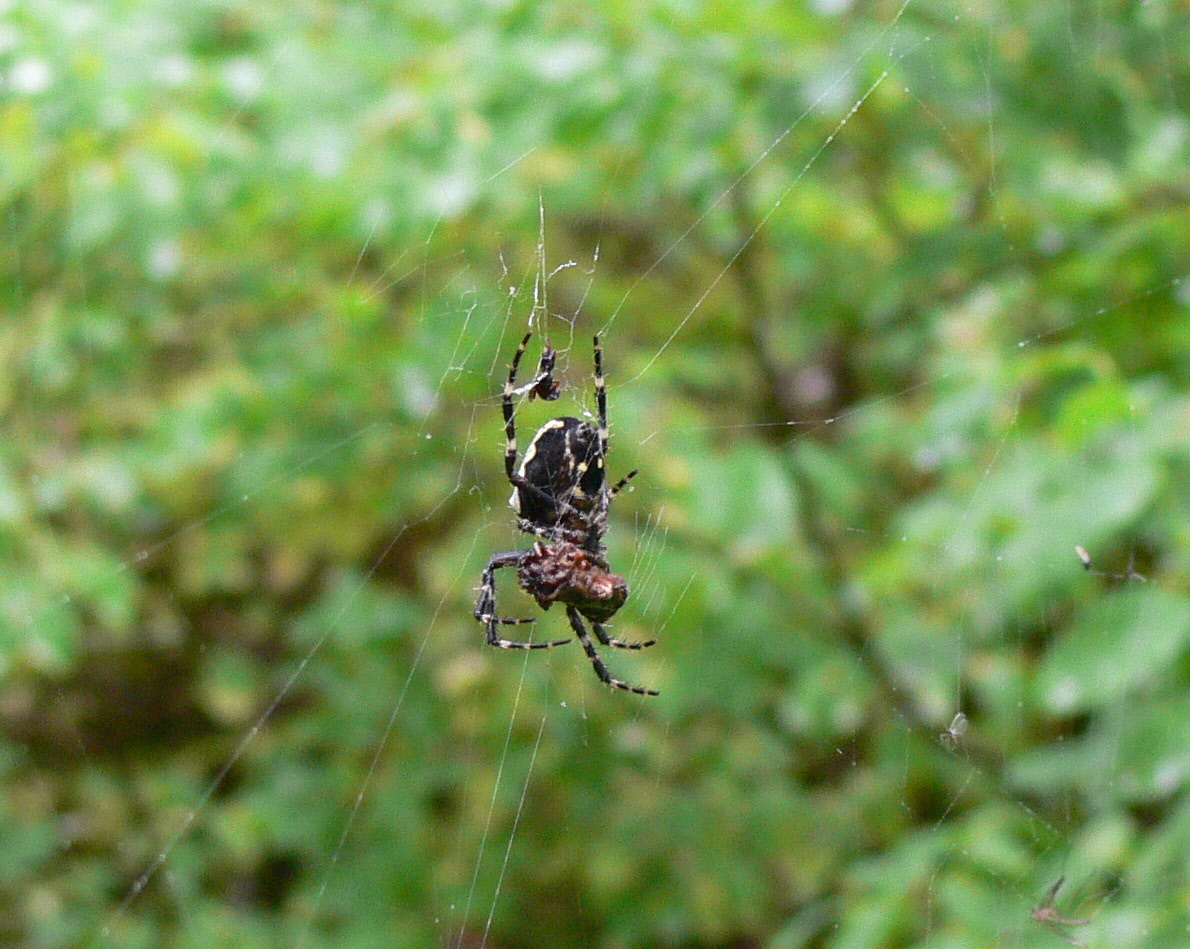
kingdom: Animalia
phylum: Arthropoda
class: Arachnida
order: Araneae
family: Araneidae
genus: Araneus
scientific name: Araneus nordmanni
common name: Nordmann's orbweaver
